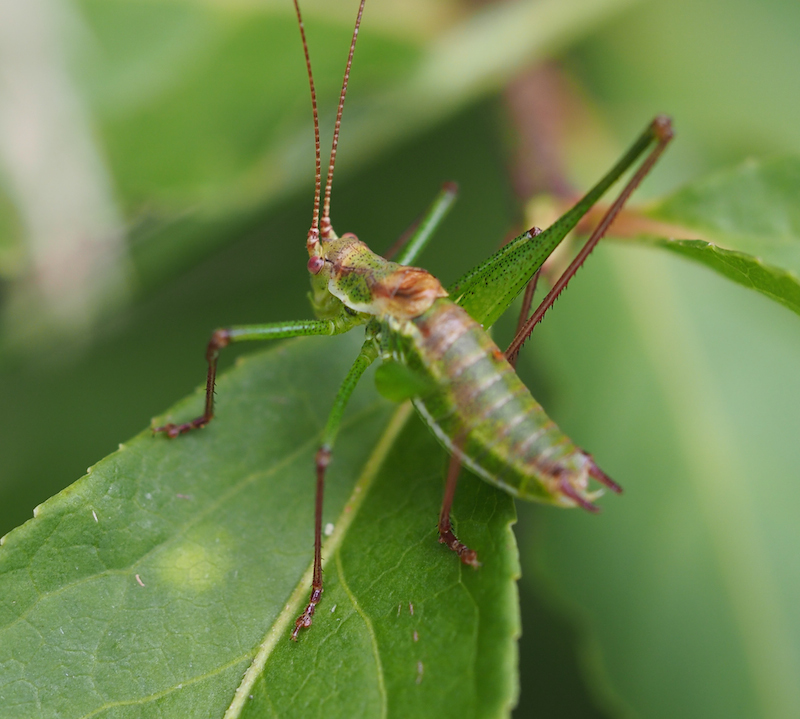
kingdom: Animalia
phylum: Arthropoda
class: Insecta
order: Orthoptera
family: Tettigoniidae
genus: Leptophyes
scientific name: Leptophyes albovittata
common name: Striped bush-cricket
